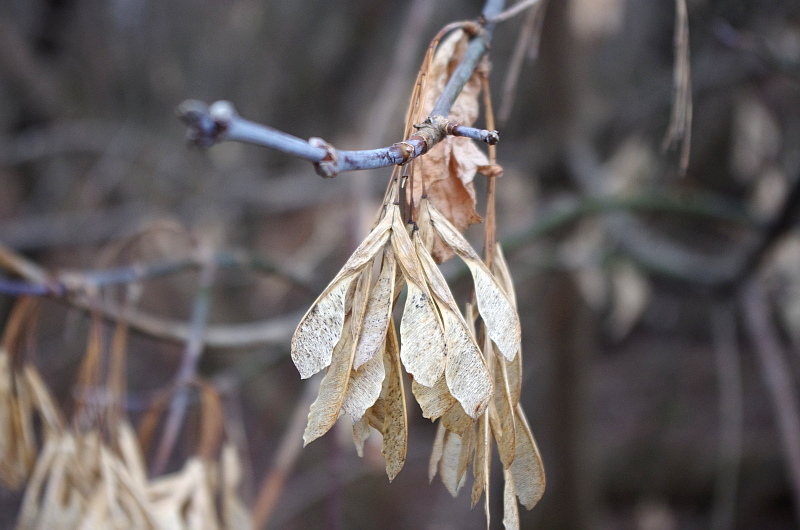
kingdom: Plantae
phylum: Tracheophyta
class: Magnoliopsida
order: Sapindales
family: Sapindaceae
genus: Acer
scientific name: Acer negundo
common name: Ashleaf maple
